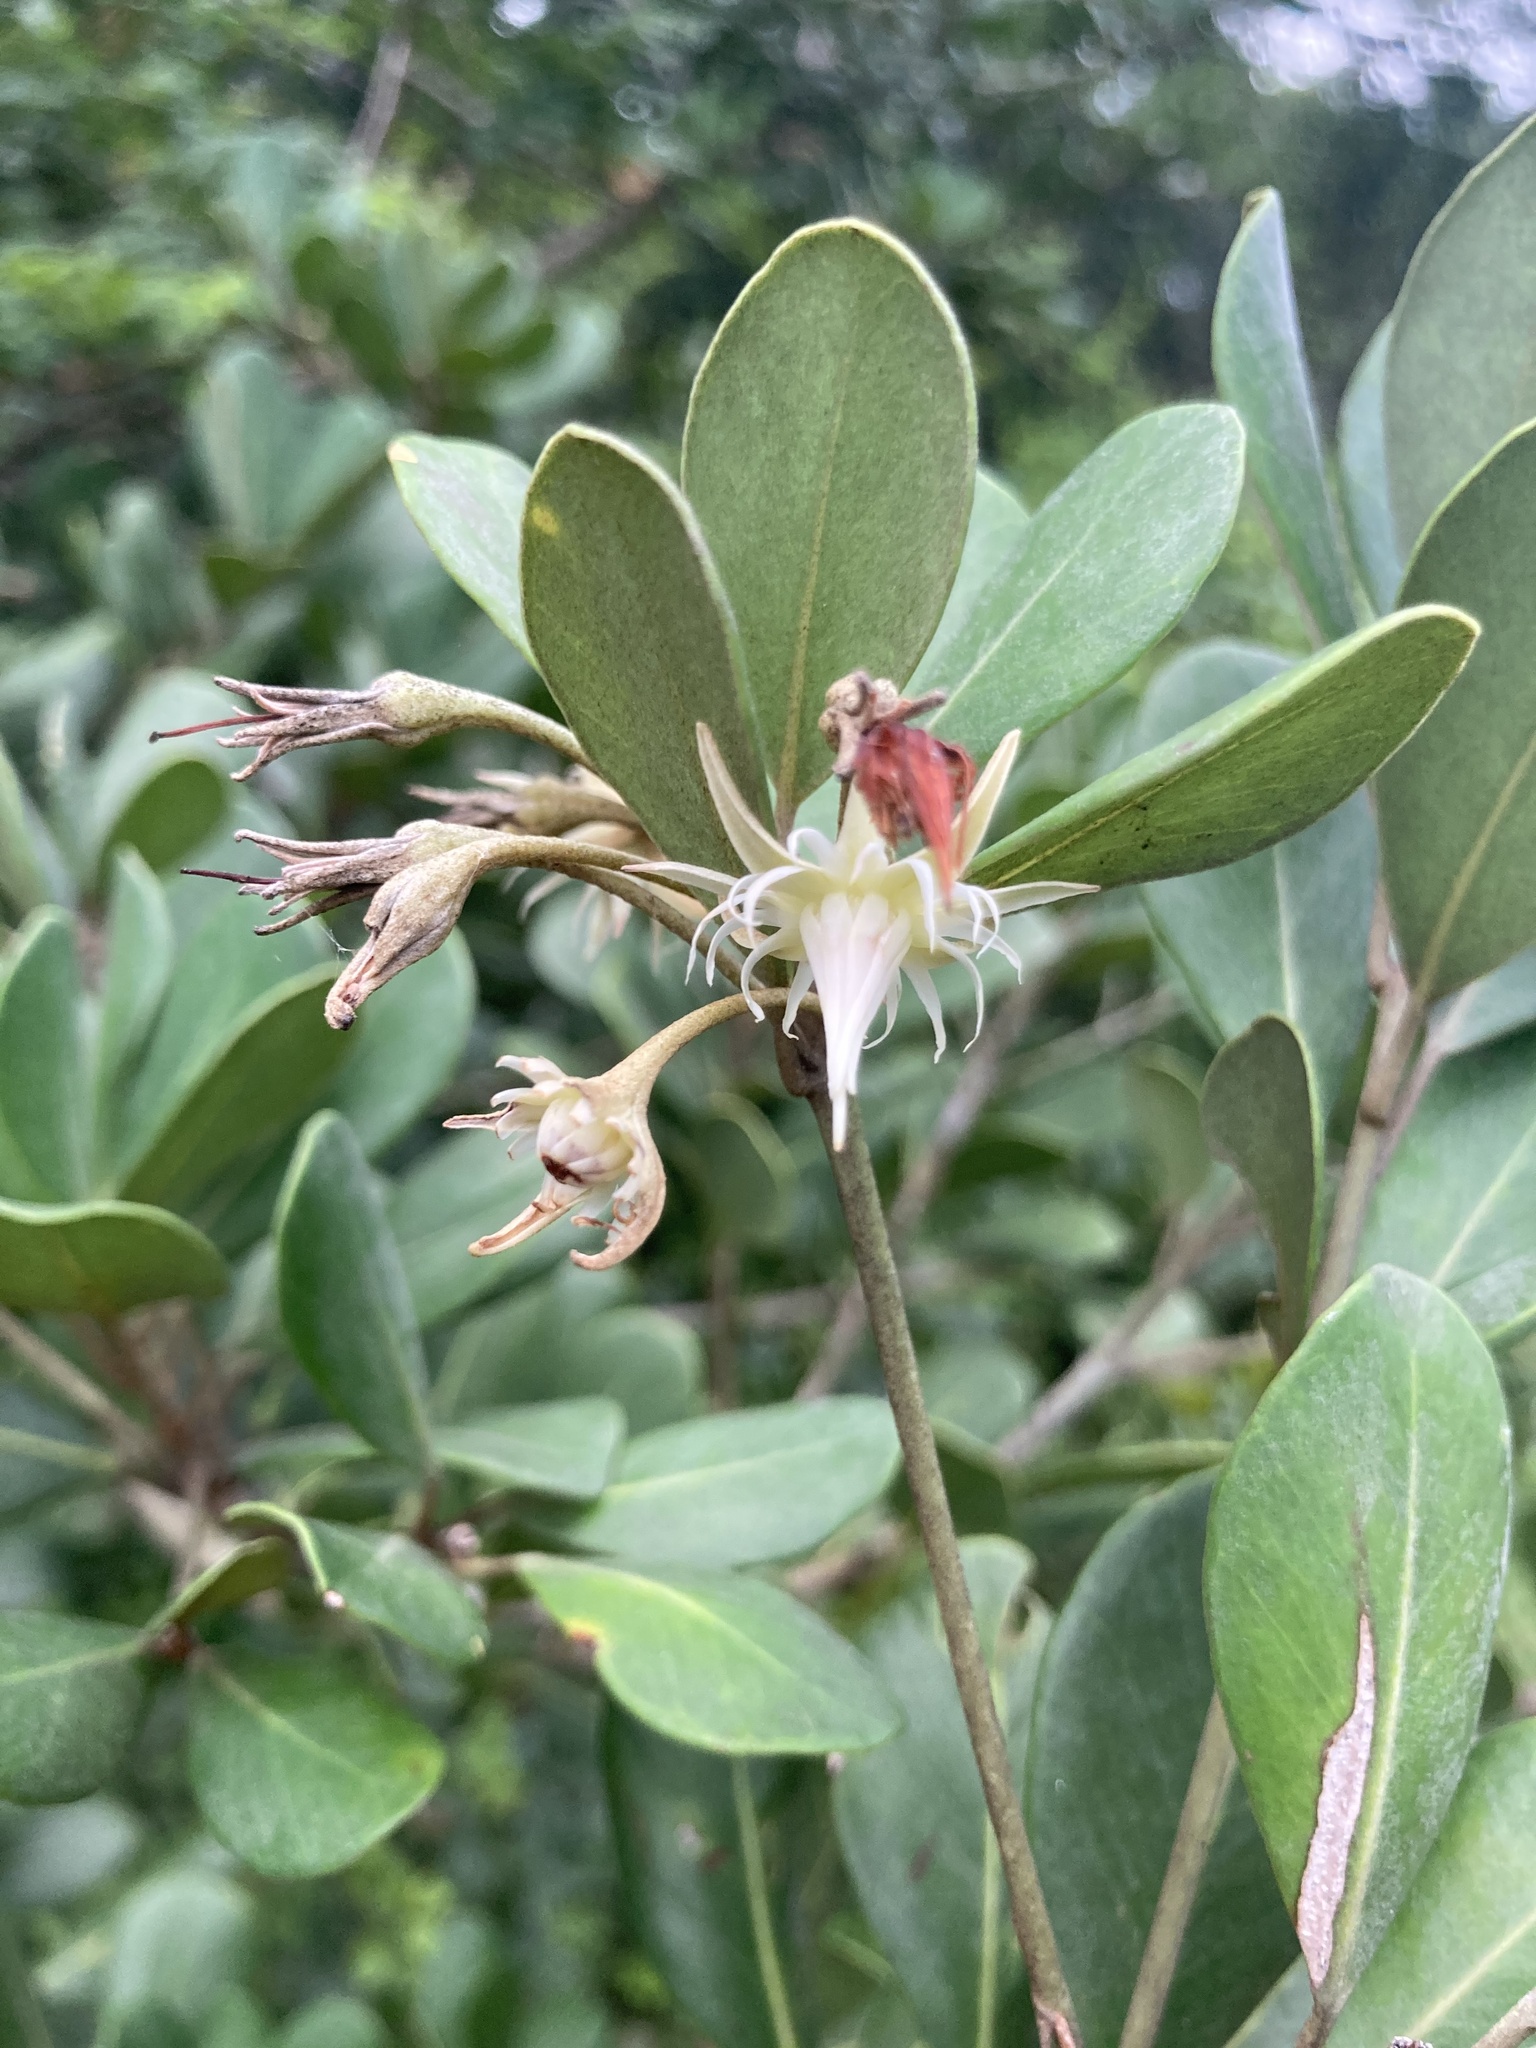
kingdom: Plantae
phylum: Tracheophyta
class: Magnoliopsida
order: Ericales
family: Sapotaceae
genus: Mimusops
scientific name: Mimusops caffra
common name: Coastal red milkwood
